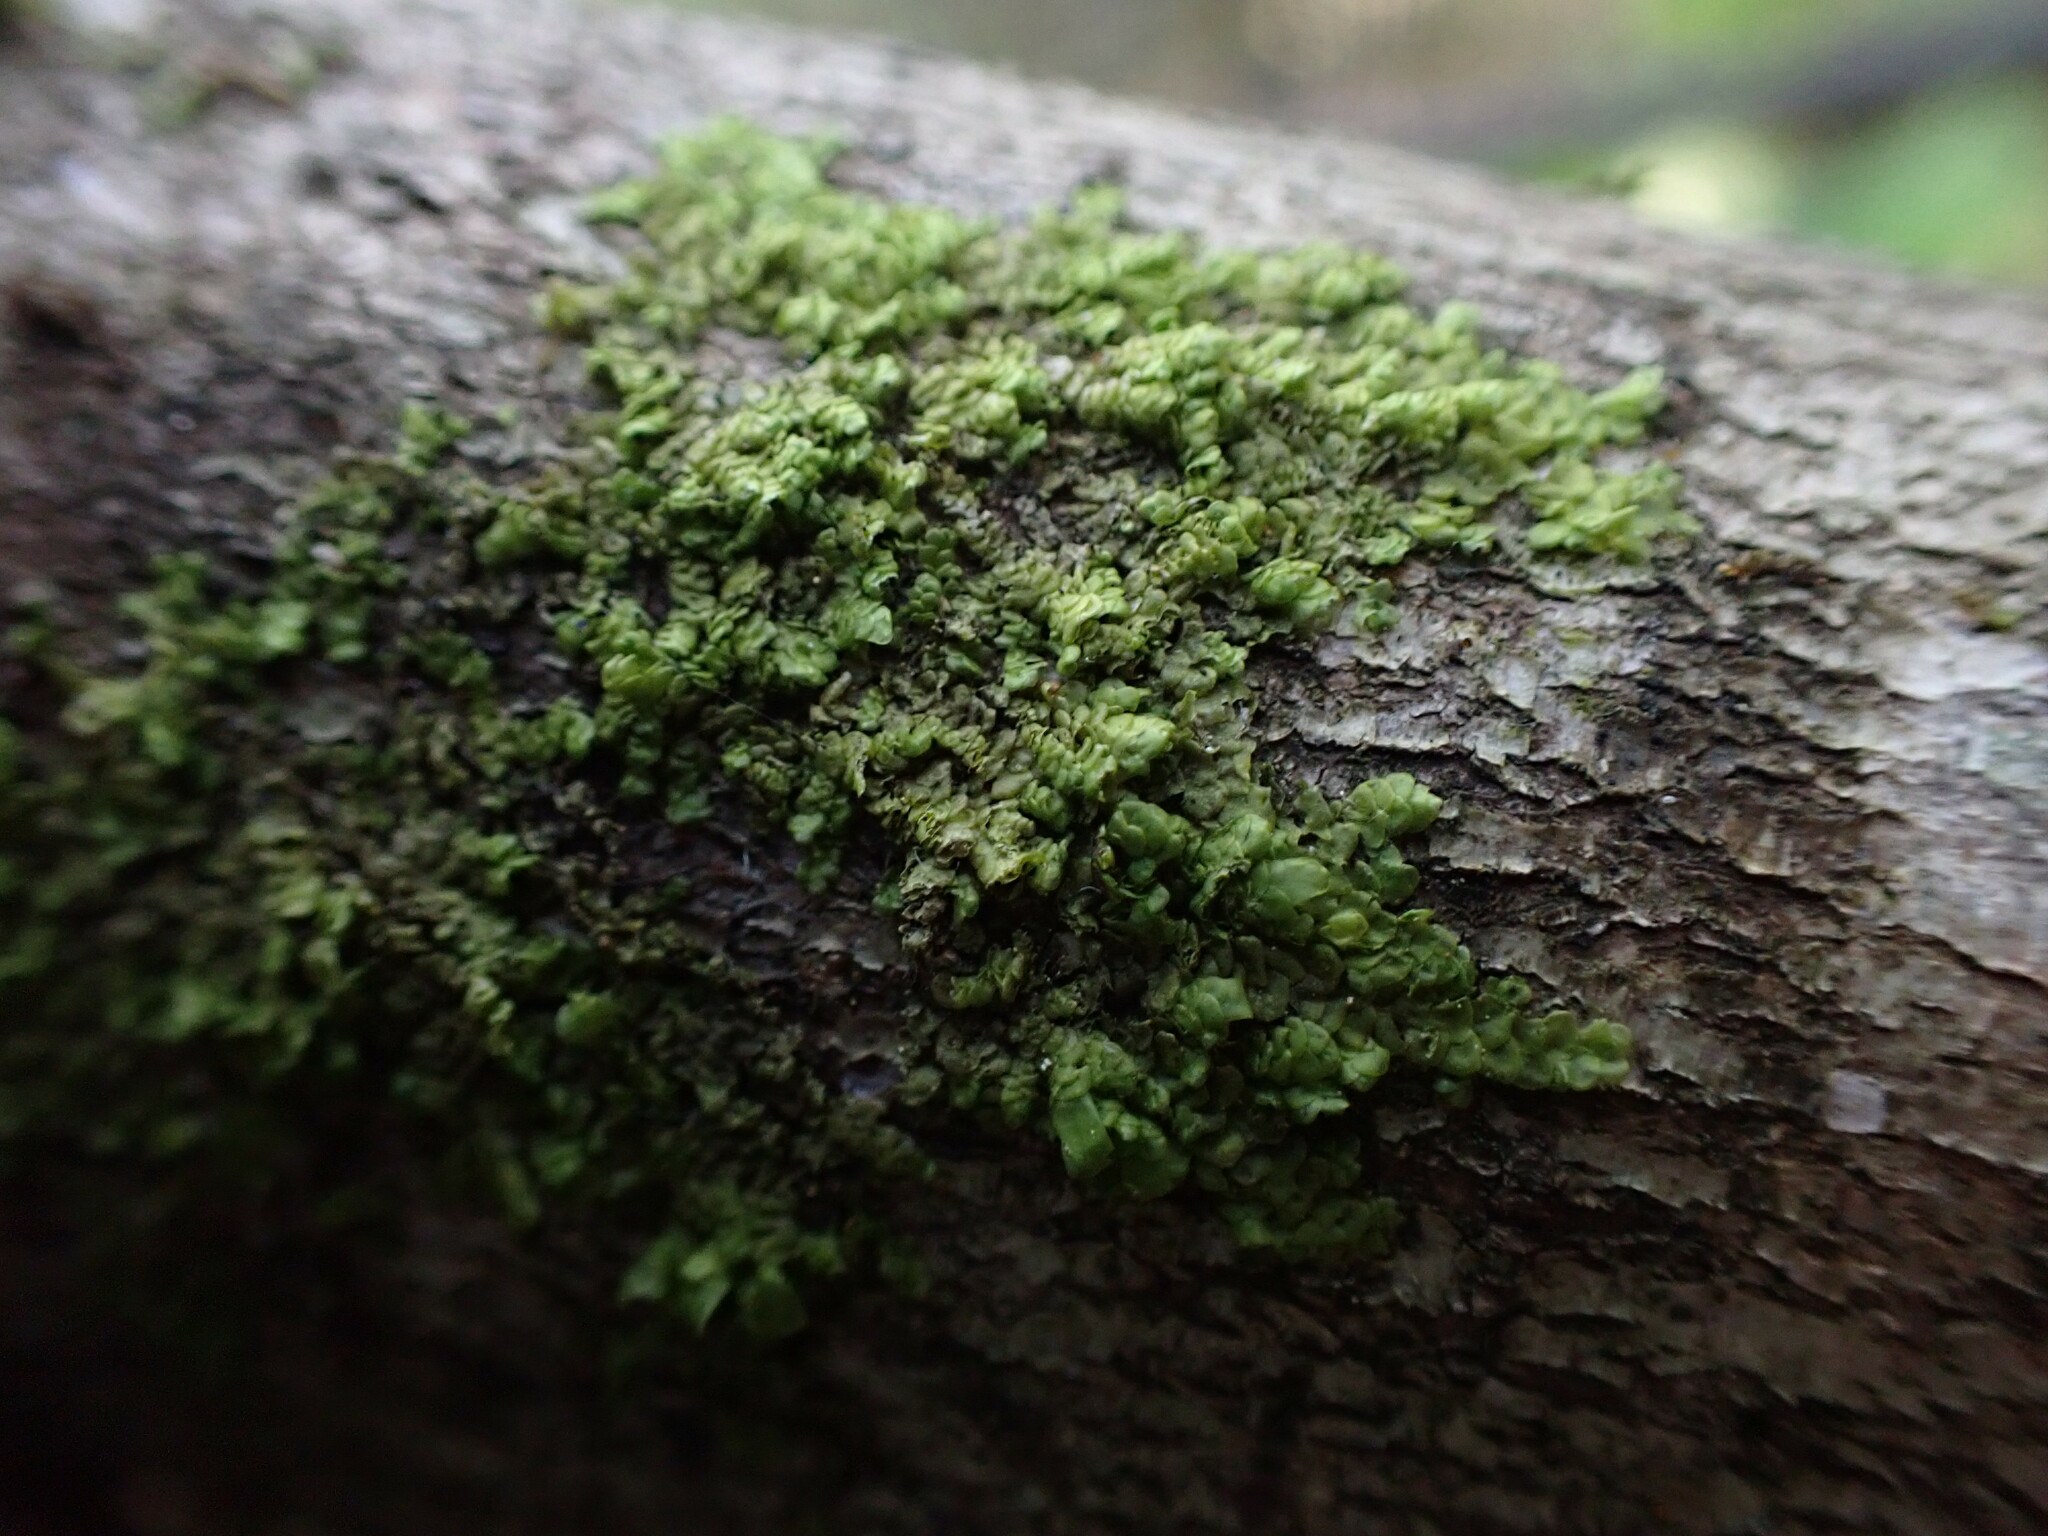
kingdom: Plantae
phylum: Marchantiophyta
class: Jungermanniopsida
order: Porellales
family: Radulaceae
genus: Radula
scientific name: Radula complanata
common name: Flat-leaved scalewort
